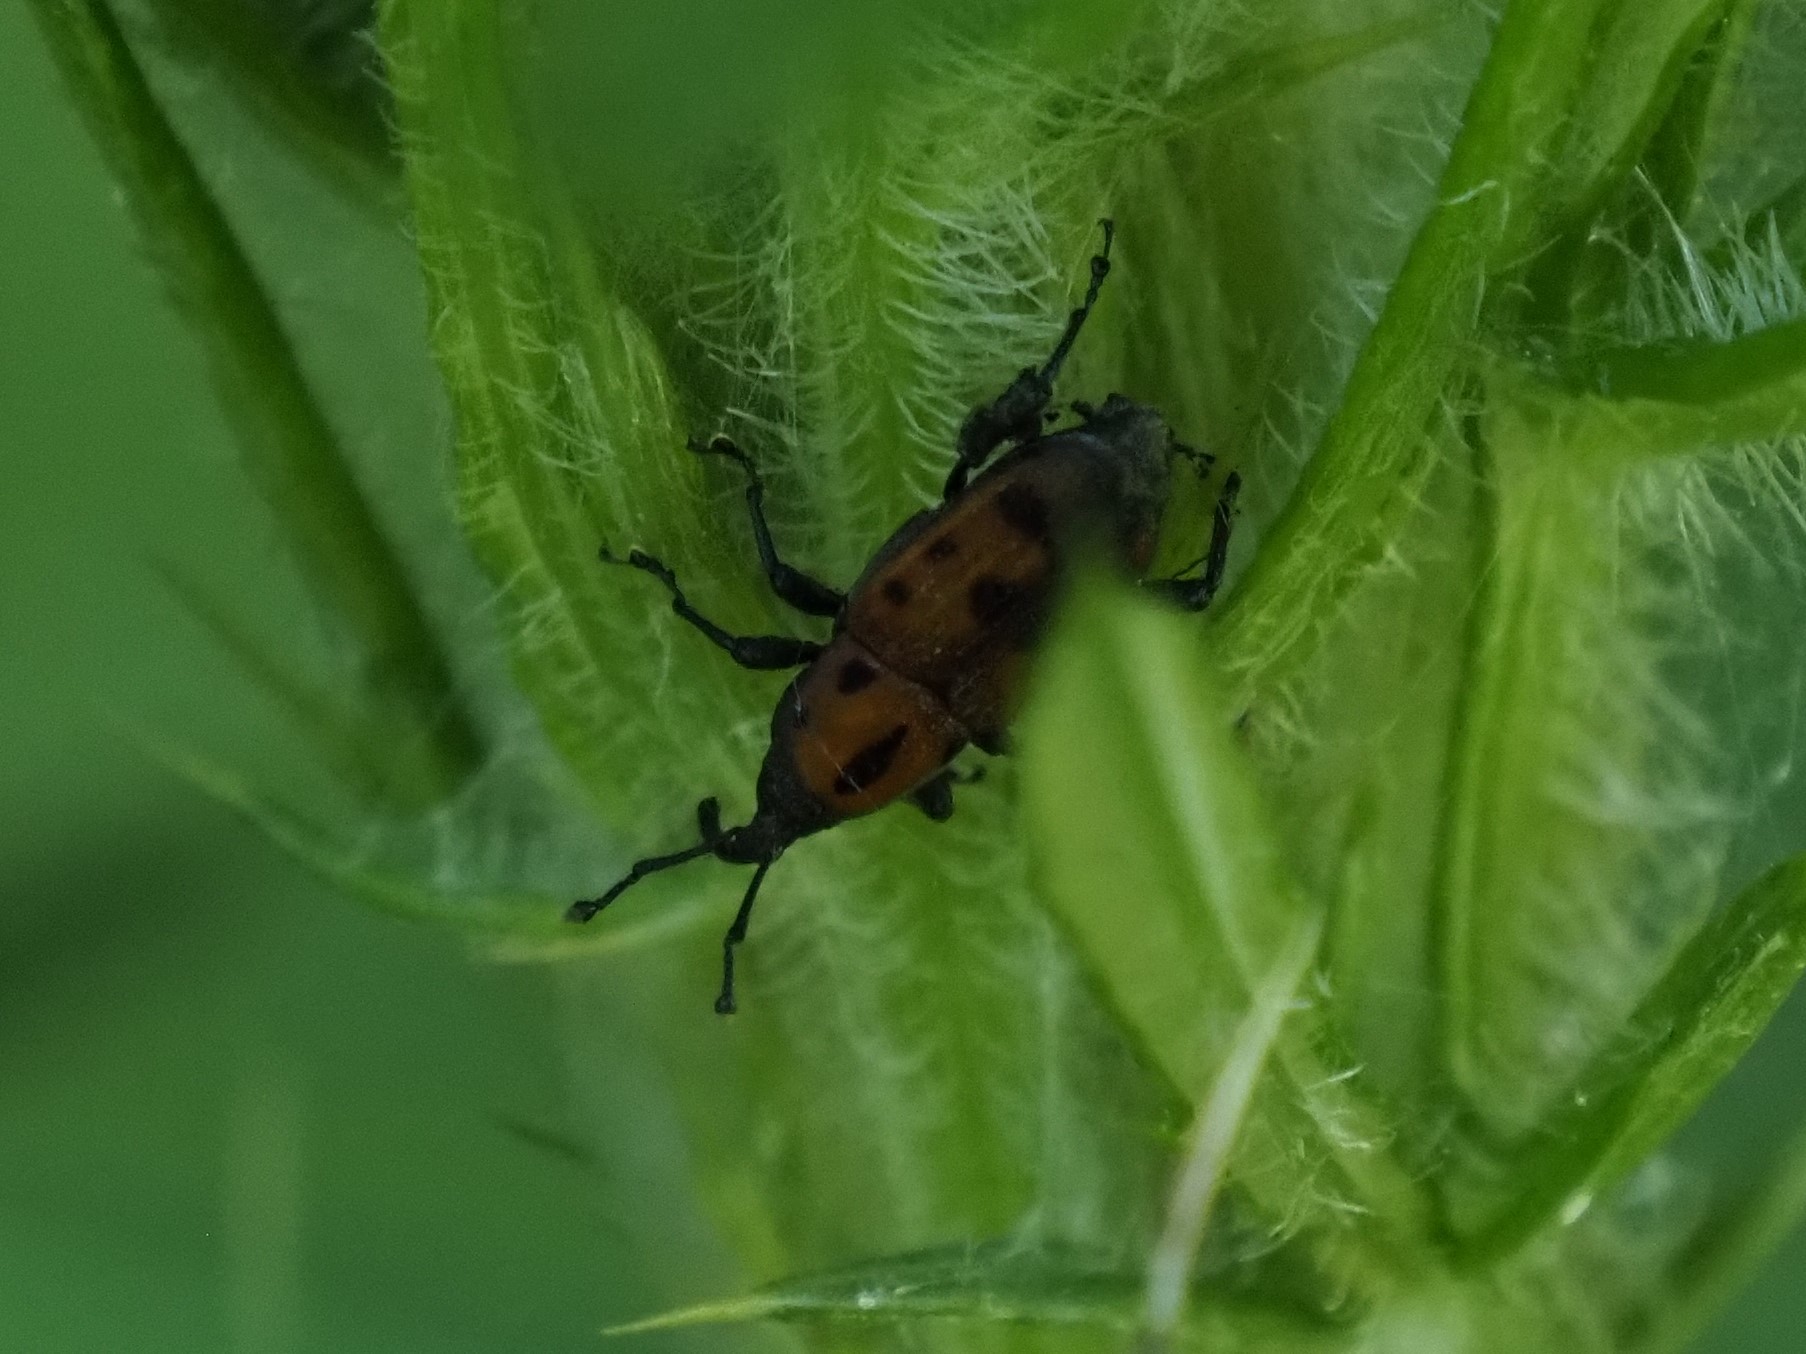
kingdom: Animalia
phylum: Arthropoda
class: Insecta
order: Coleoptera
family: Dryophthoridae
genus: Rhodobaenus
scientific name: Rhodobaenus tredecimpunctatus
